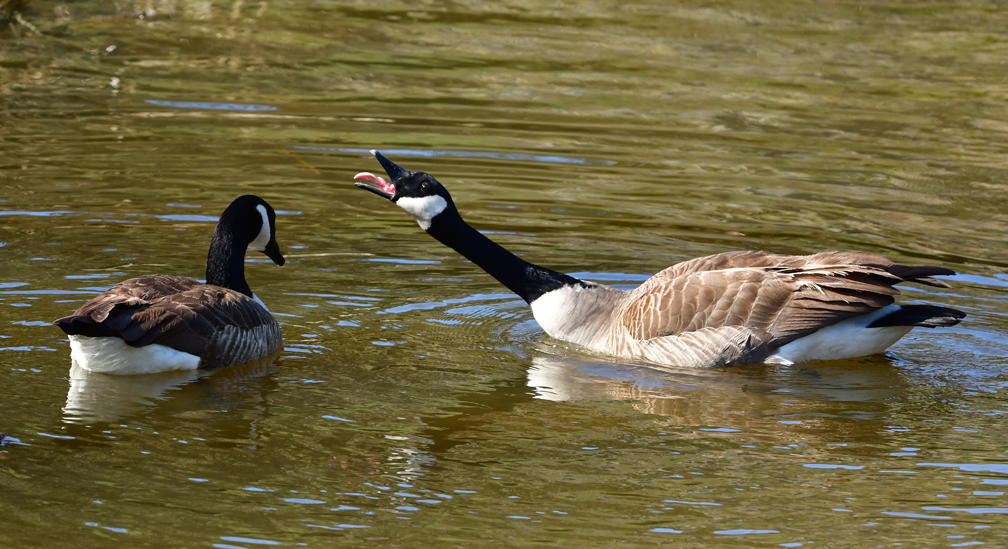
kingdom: Animalia
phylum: Chordata
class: Aves
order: Anseriformes
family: Anatidae
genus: Branta
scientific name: Branta canadensis
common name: Canada goose
